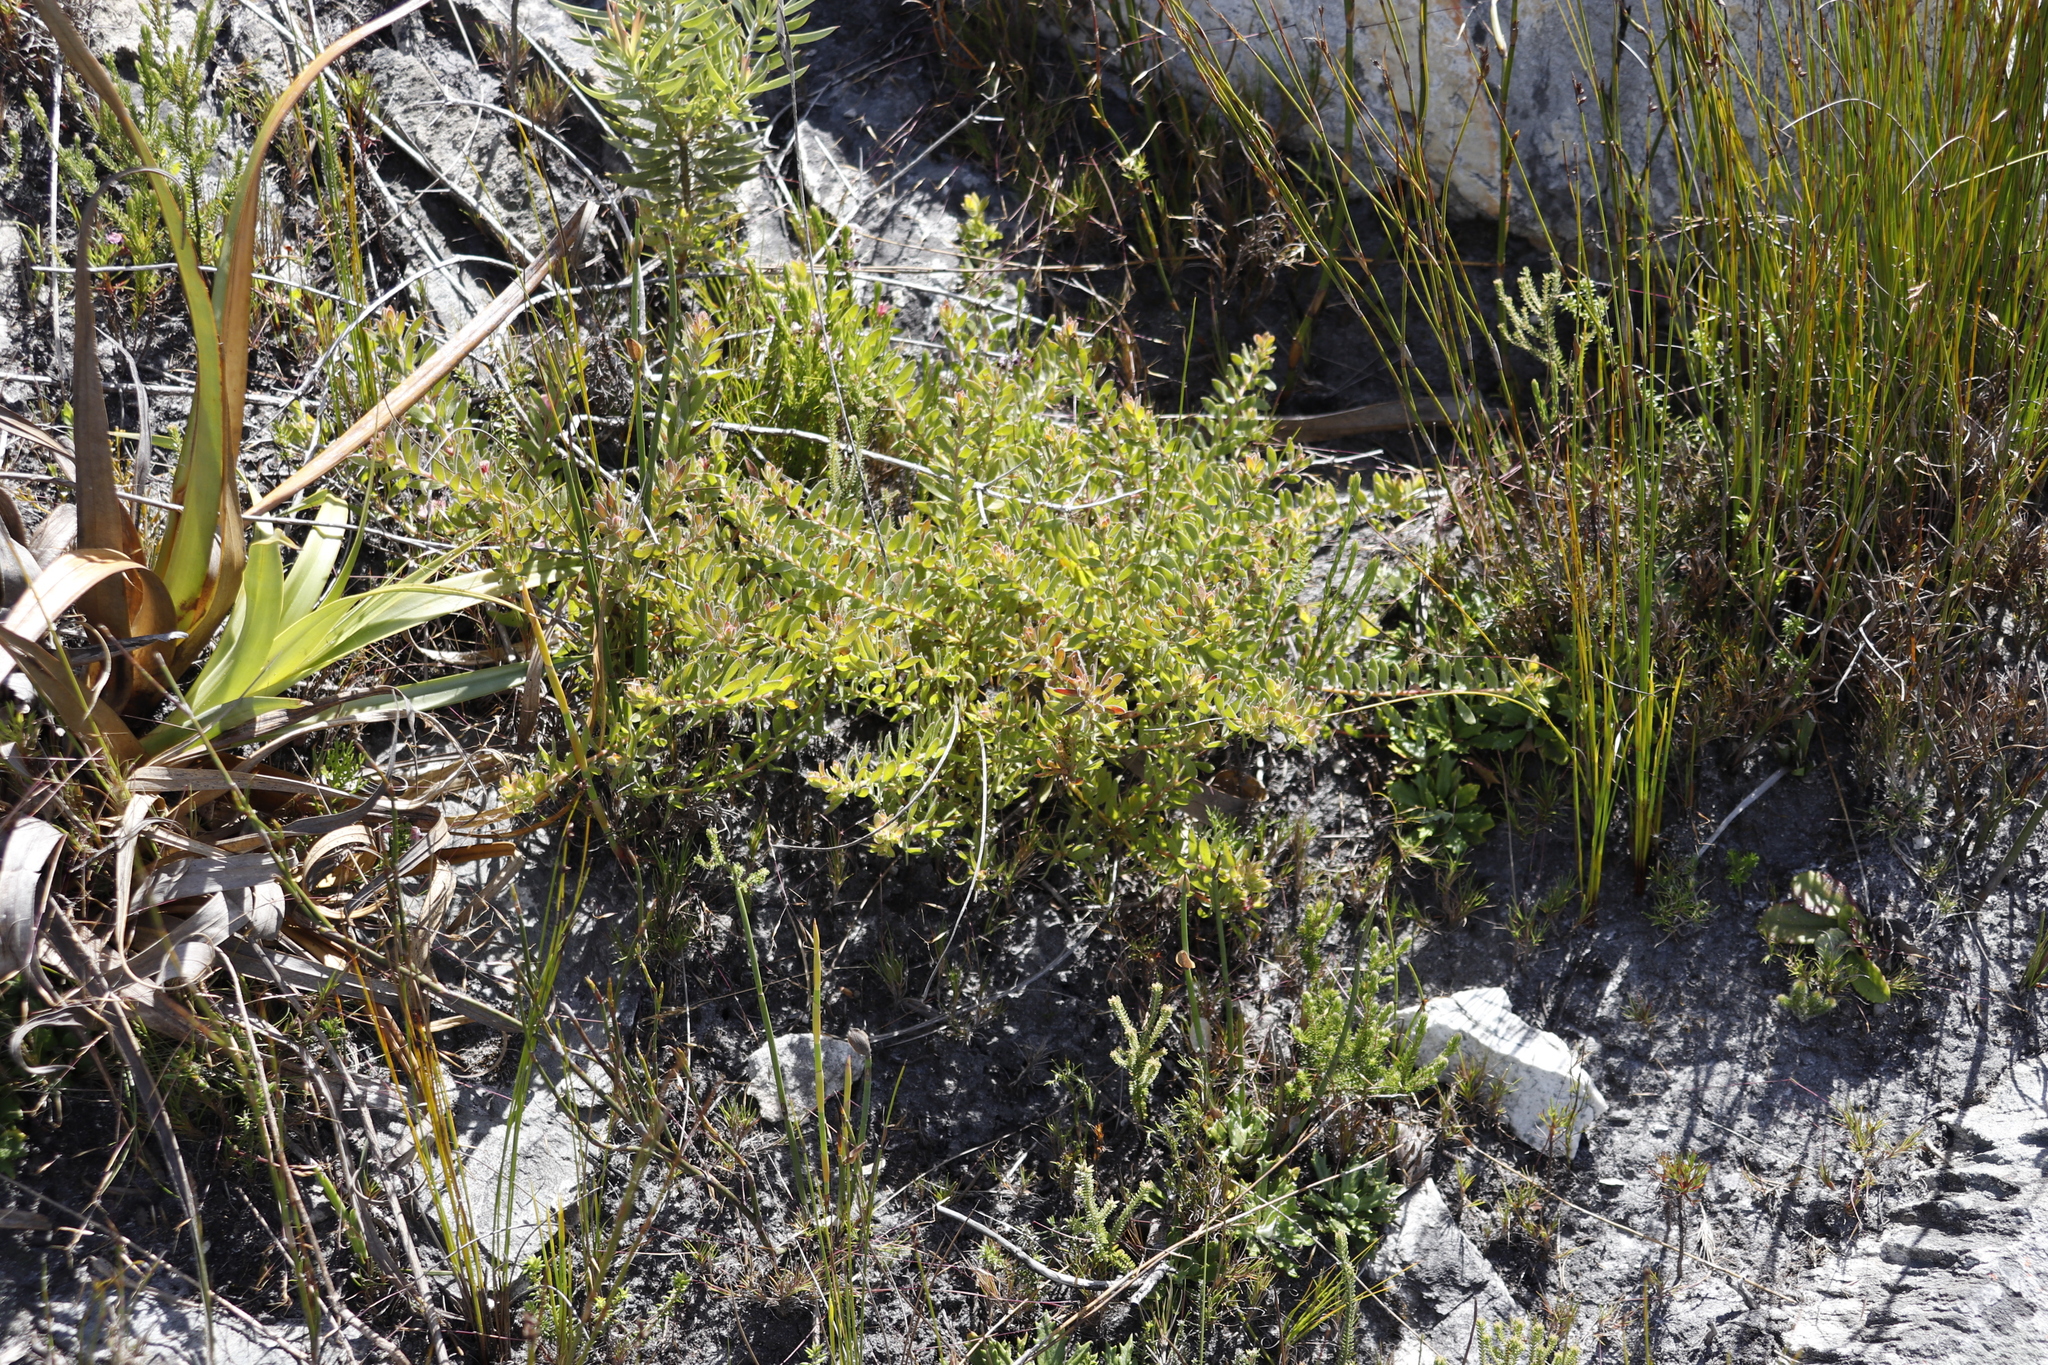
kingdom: Plantae
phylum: Tracheophyta
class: Magnoliopsida
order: Proteales
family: Proteaceae
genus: Diastella
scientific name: Diastella divaricata
